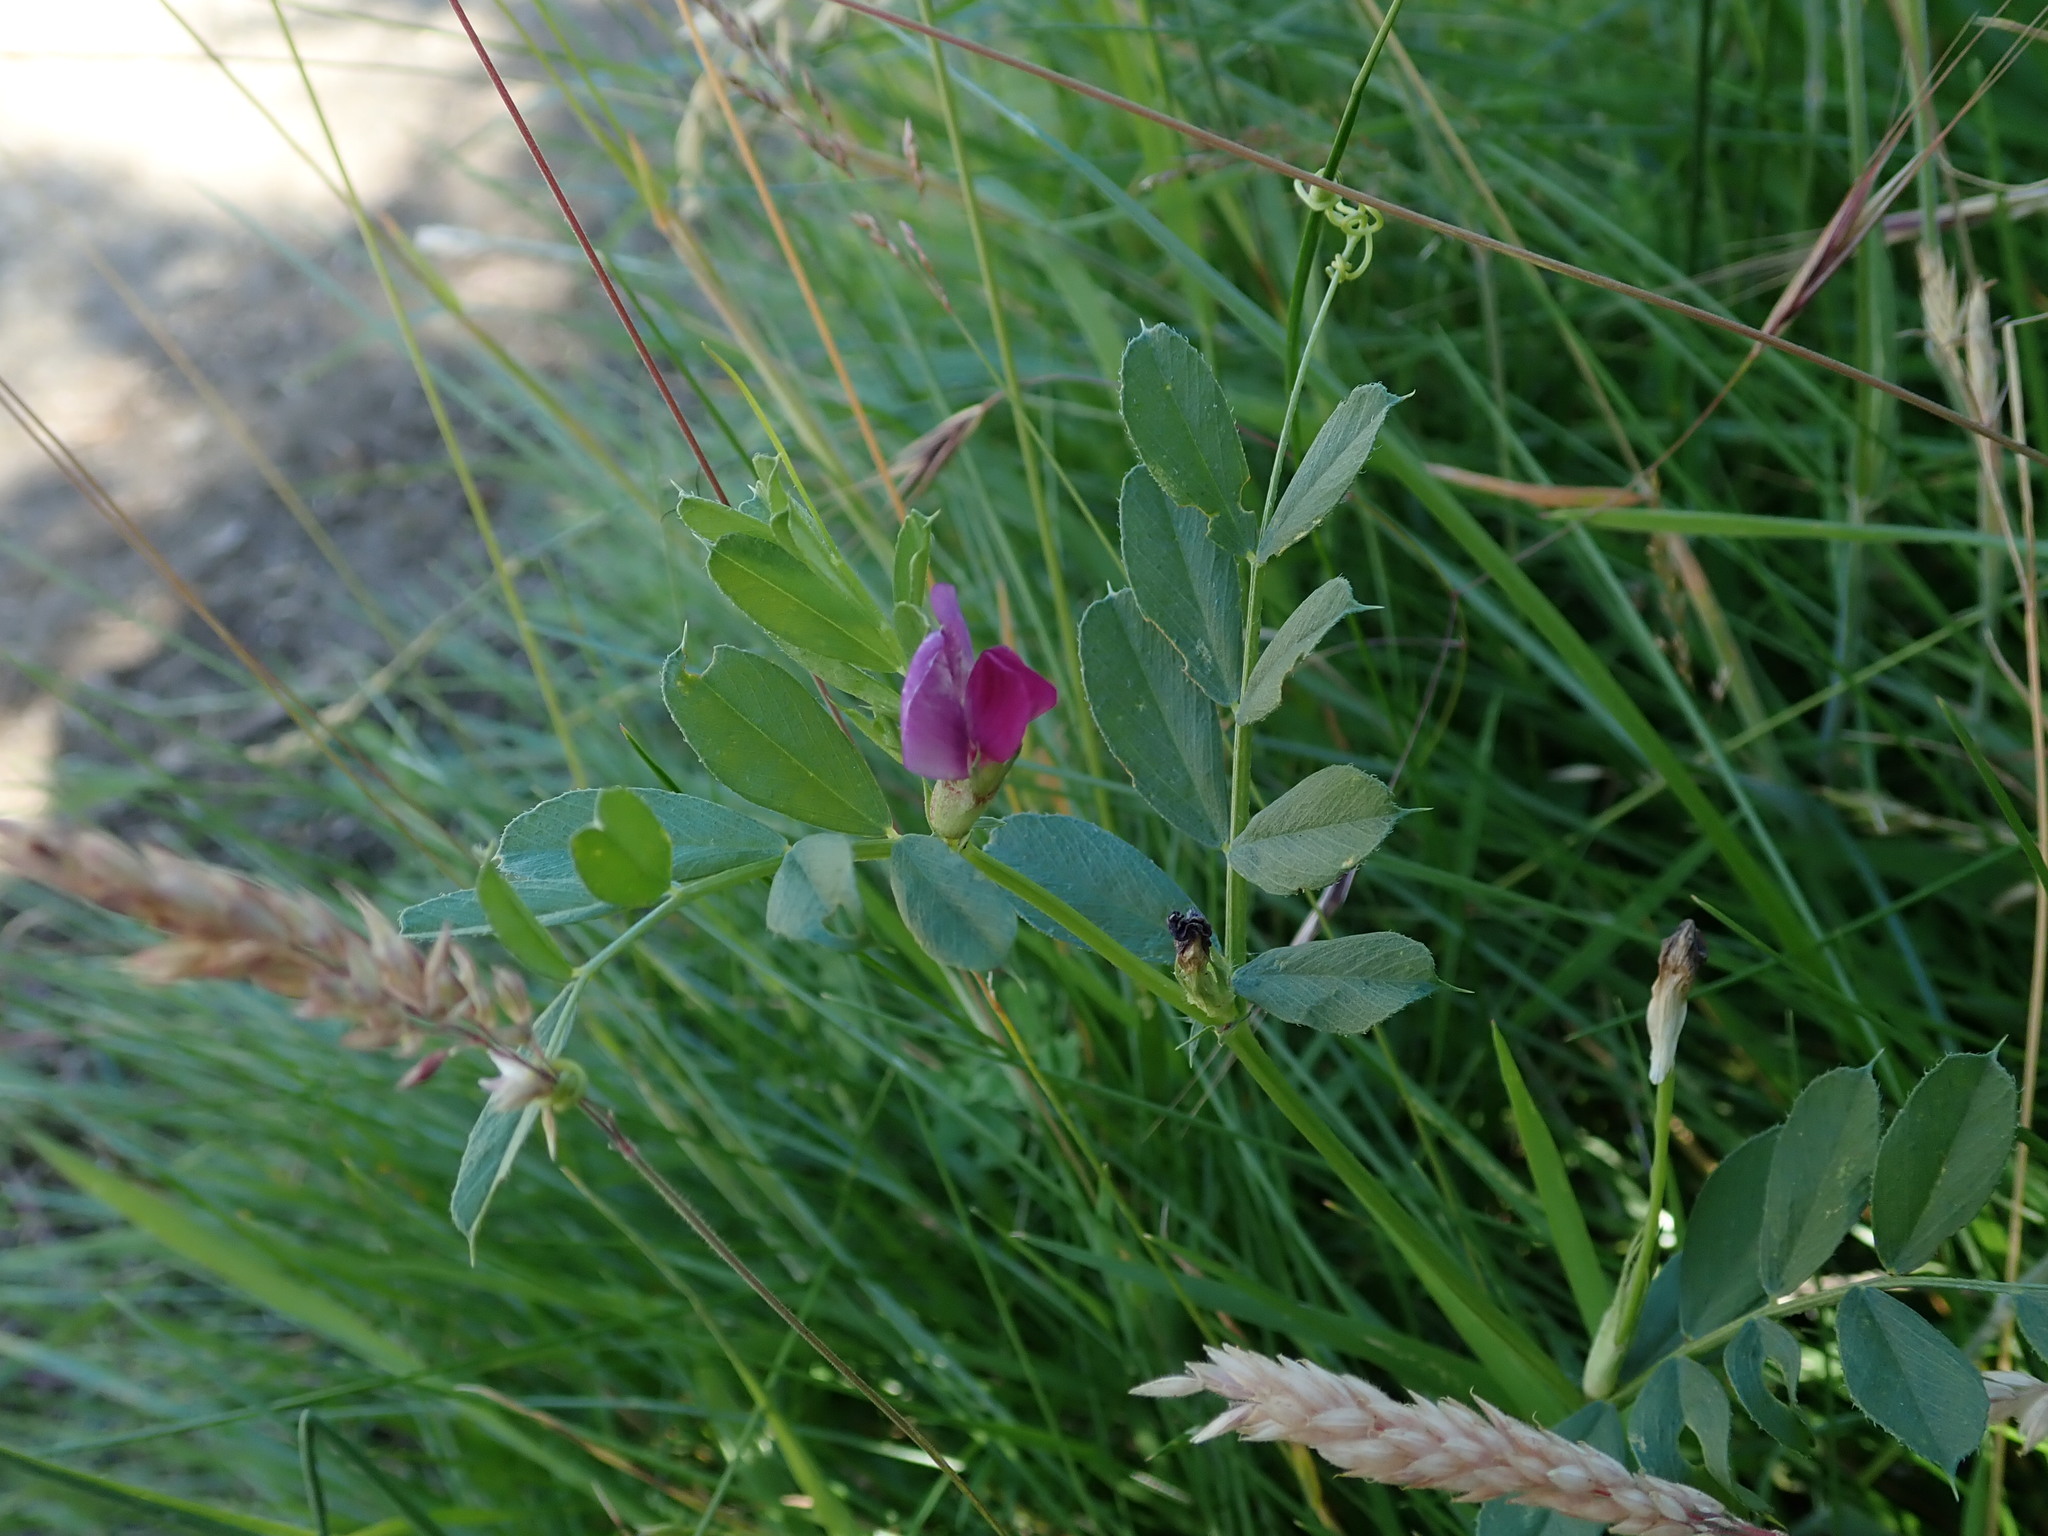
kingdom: Plantae
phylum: Tracheophyta
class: Magnoliopsida
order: Fabales
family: Fabaceae
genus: Vicia
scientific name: Vicia sativa
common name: Garden vetch
